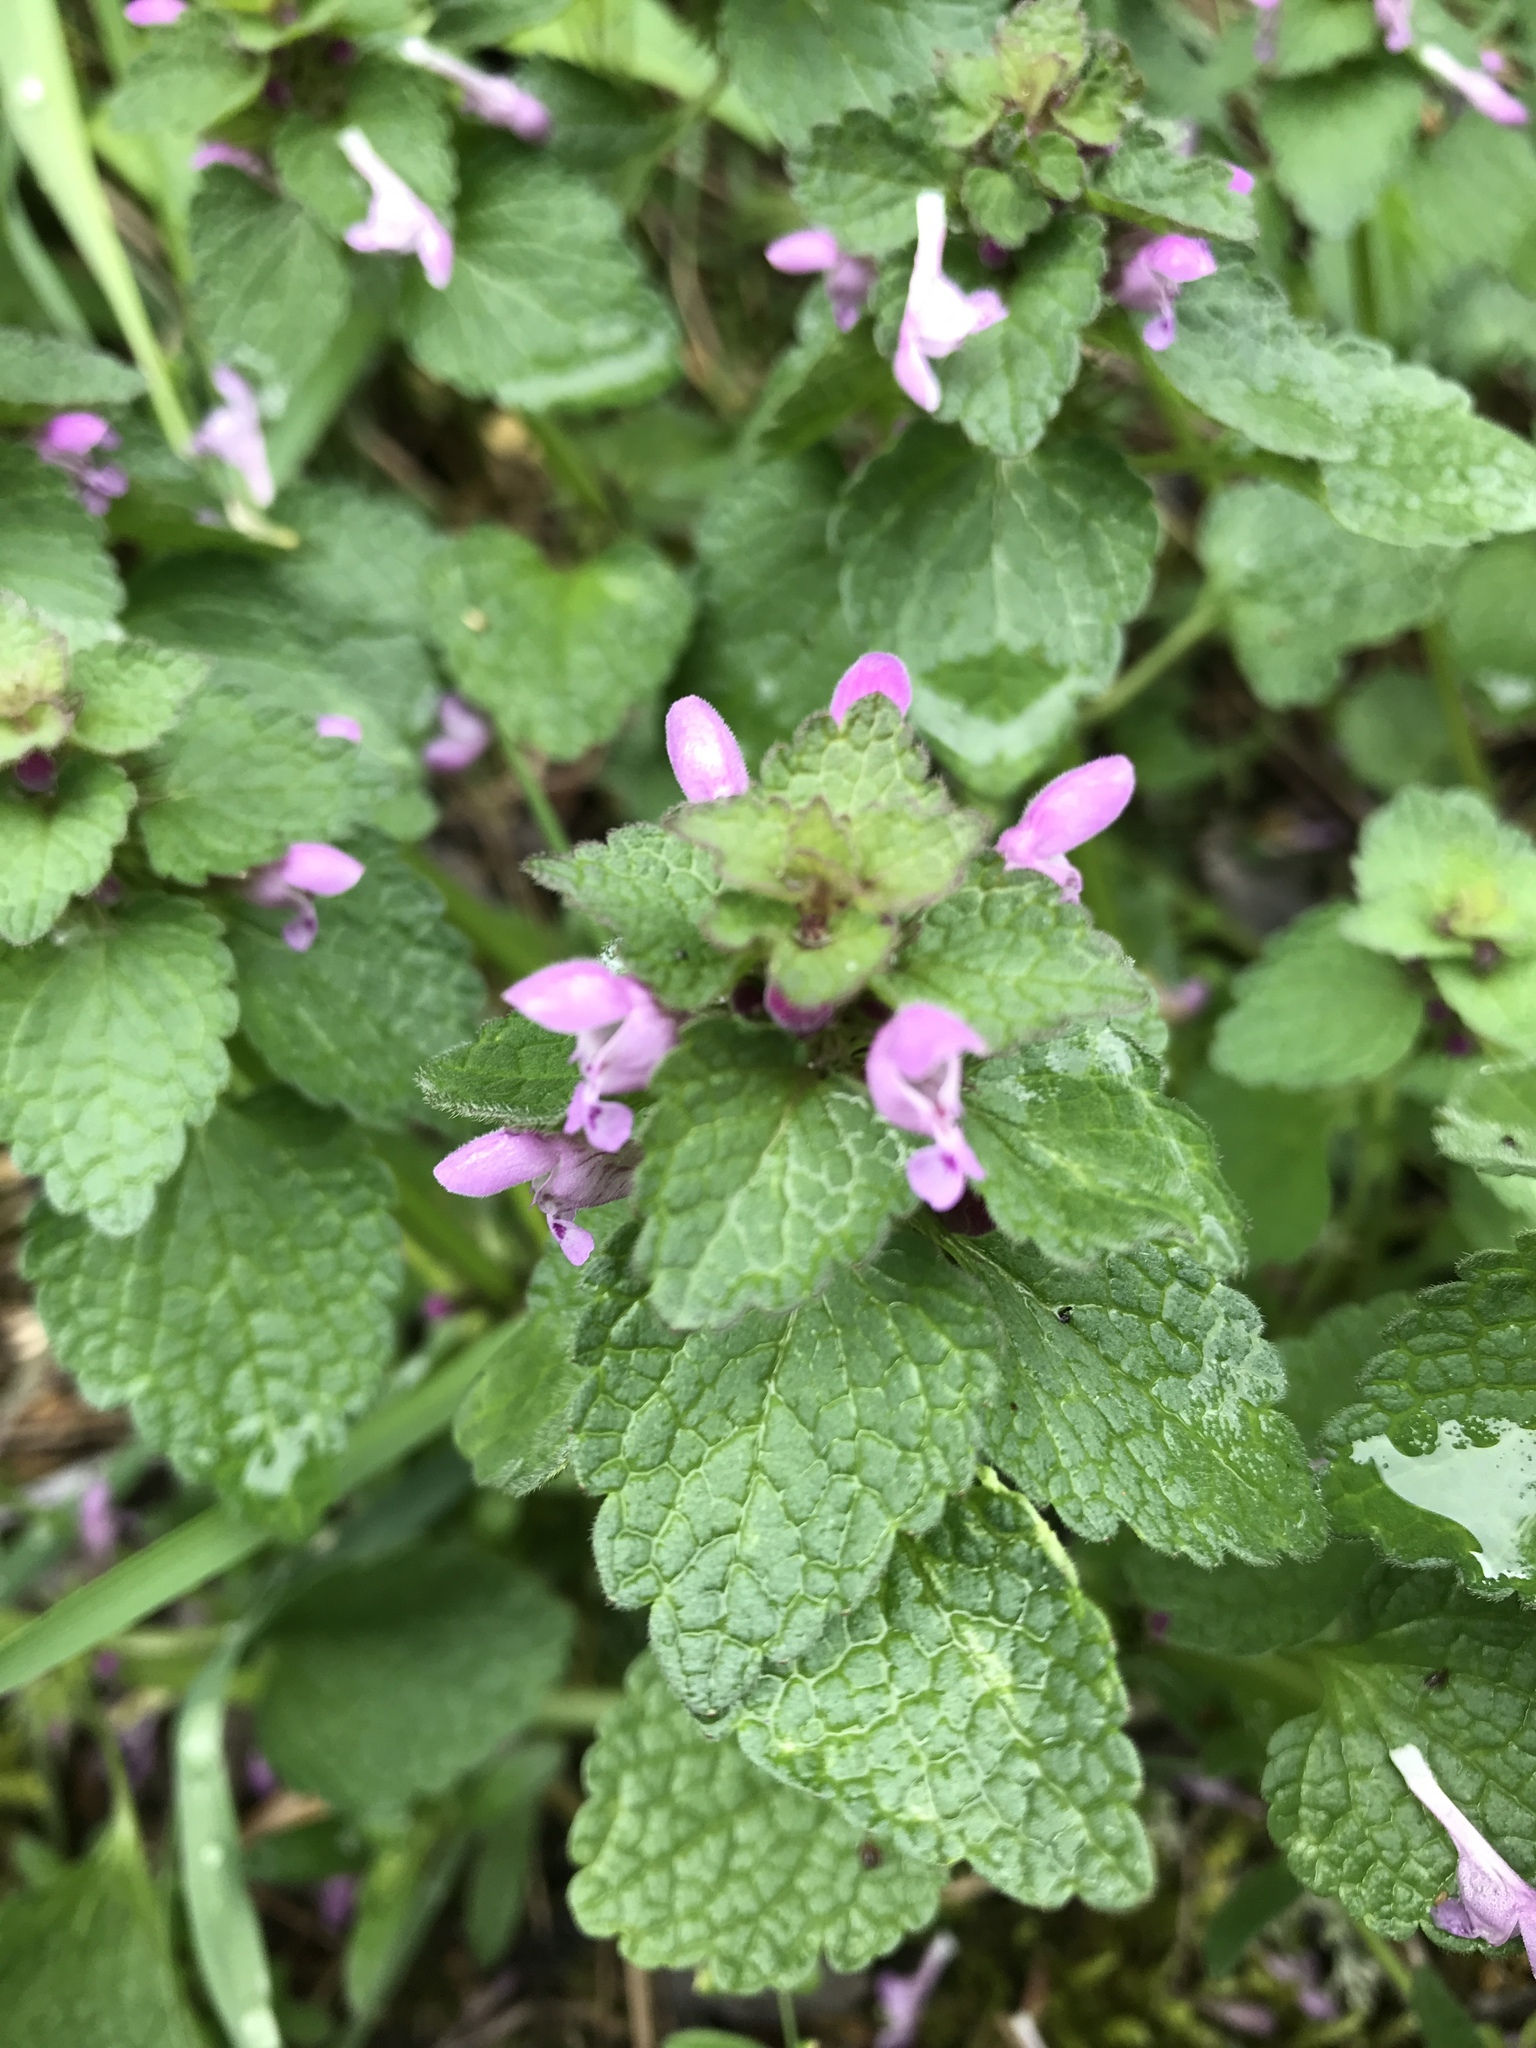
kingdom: Plantae
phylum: Tracheophyta
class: Magnoliopsida
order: Lamiales
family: Lamiaceae
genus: Lamium
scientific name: Lamium purpureum
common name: Red dead-nettle
